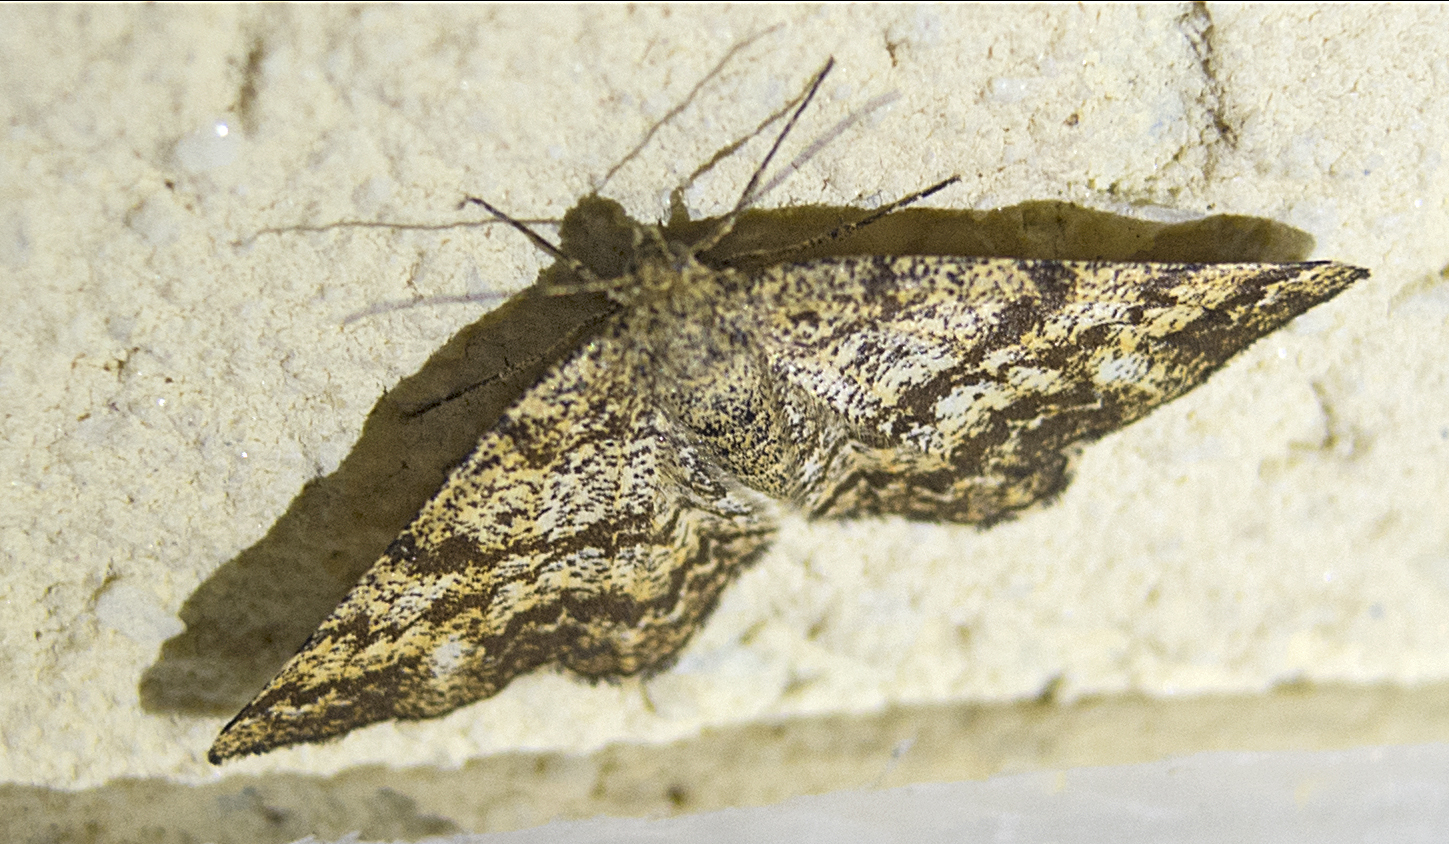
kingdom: Animalia
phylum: Arthropoda
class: Insecta
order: Lepidoptera
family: Geometridae
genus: Ematurga
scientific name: Ematurga atomaria
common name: Common heath
